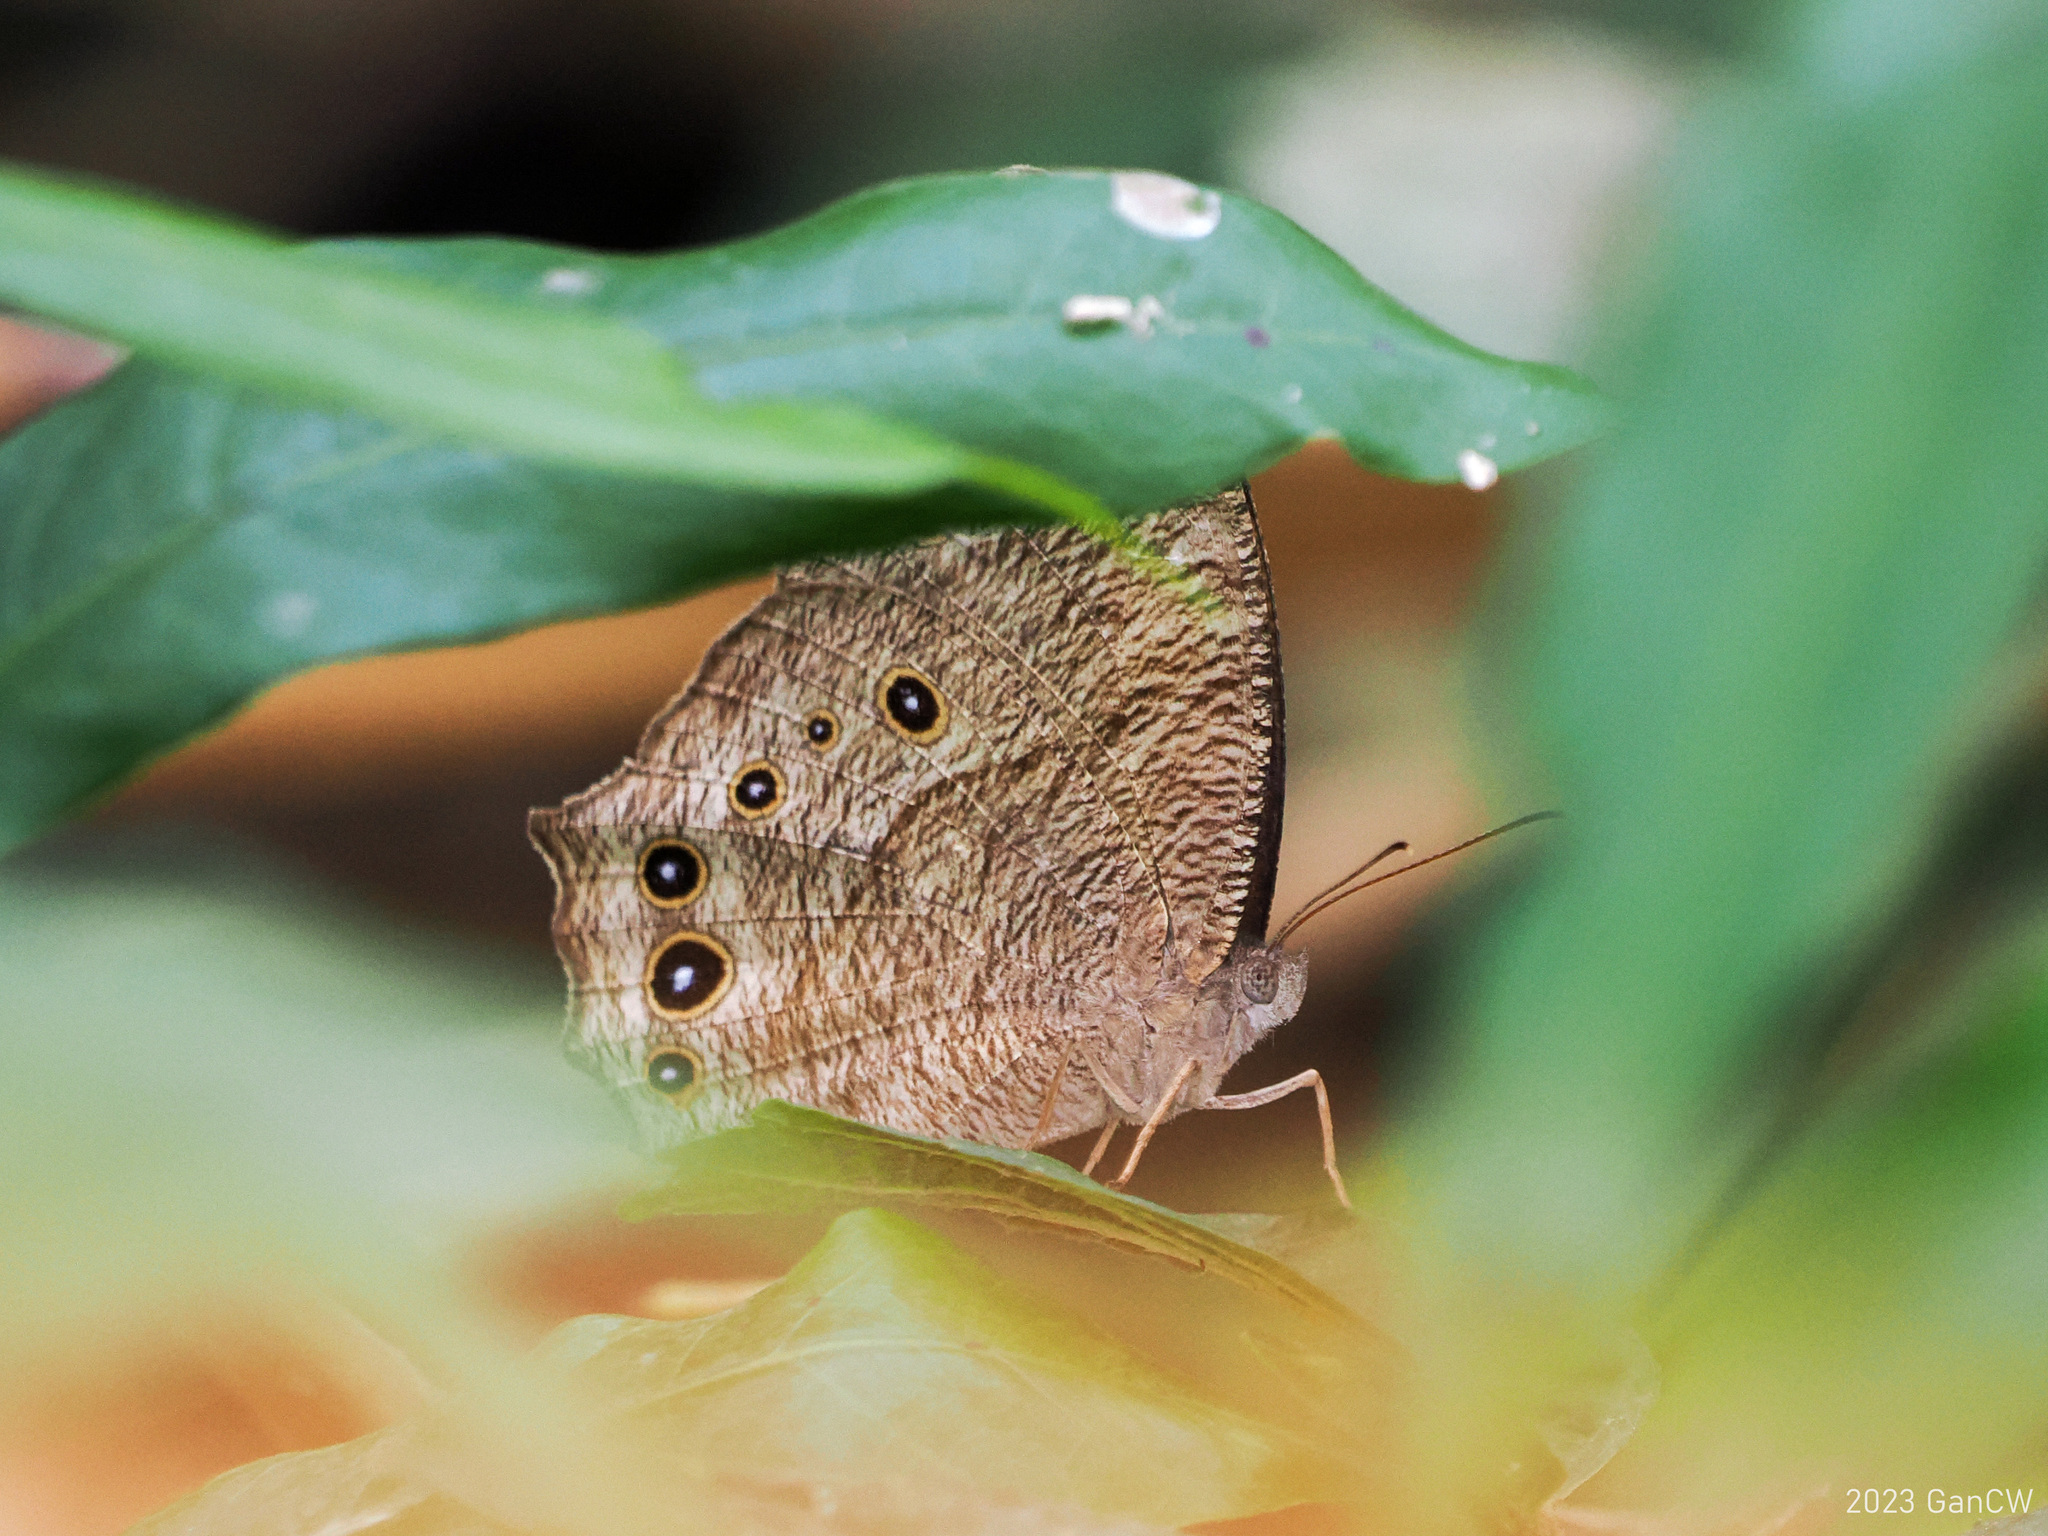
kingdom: Animalia
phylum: Arthropoda
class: Insecta
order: Lepidoptera
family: Nymphalidae
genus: Melanitis
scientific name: Melanitis leda
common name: Twilight brown
